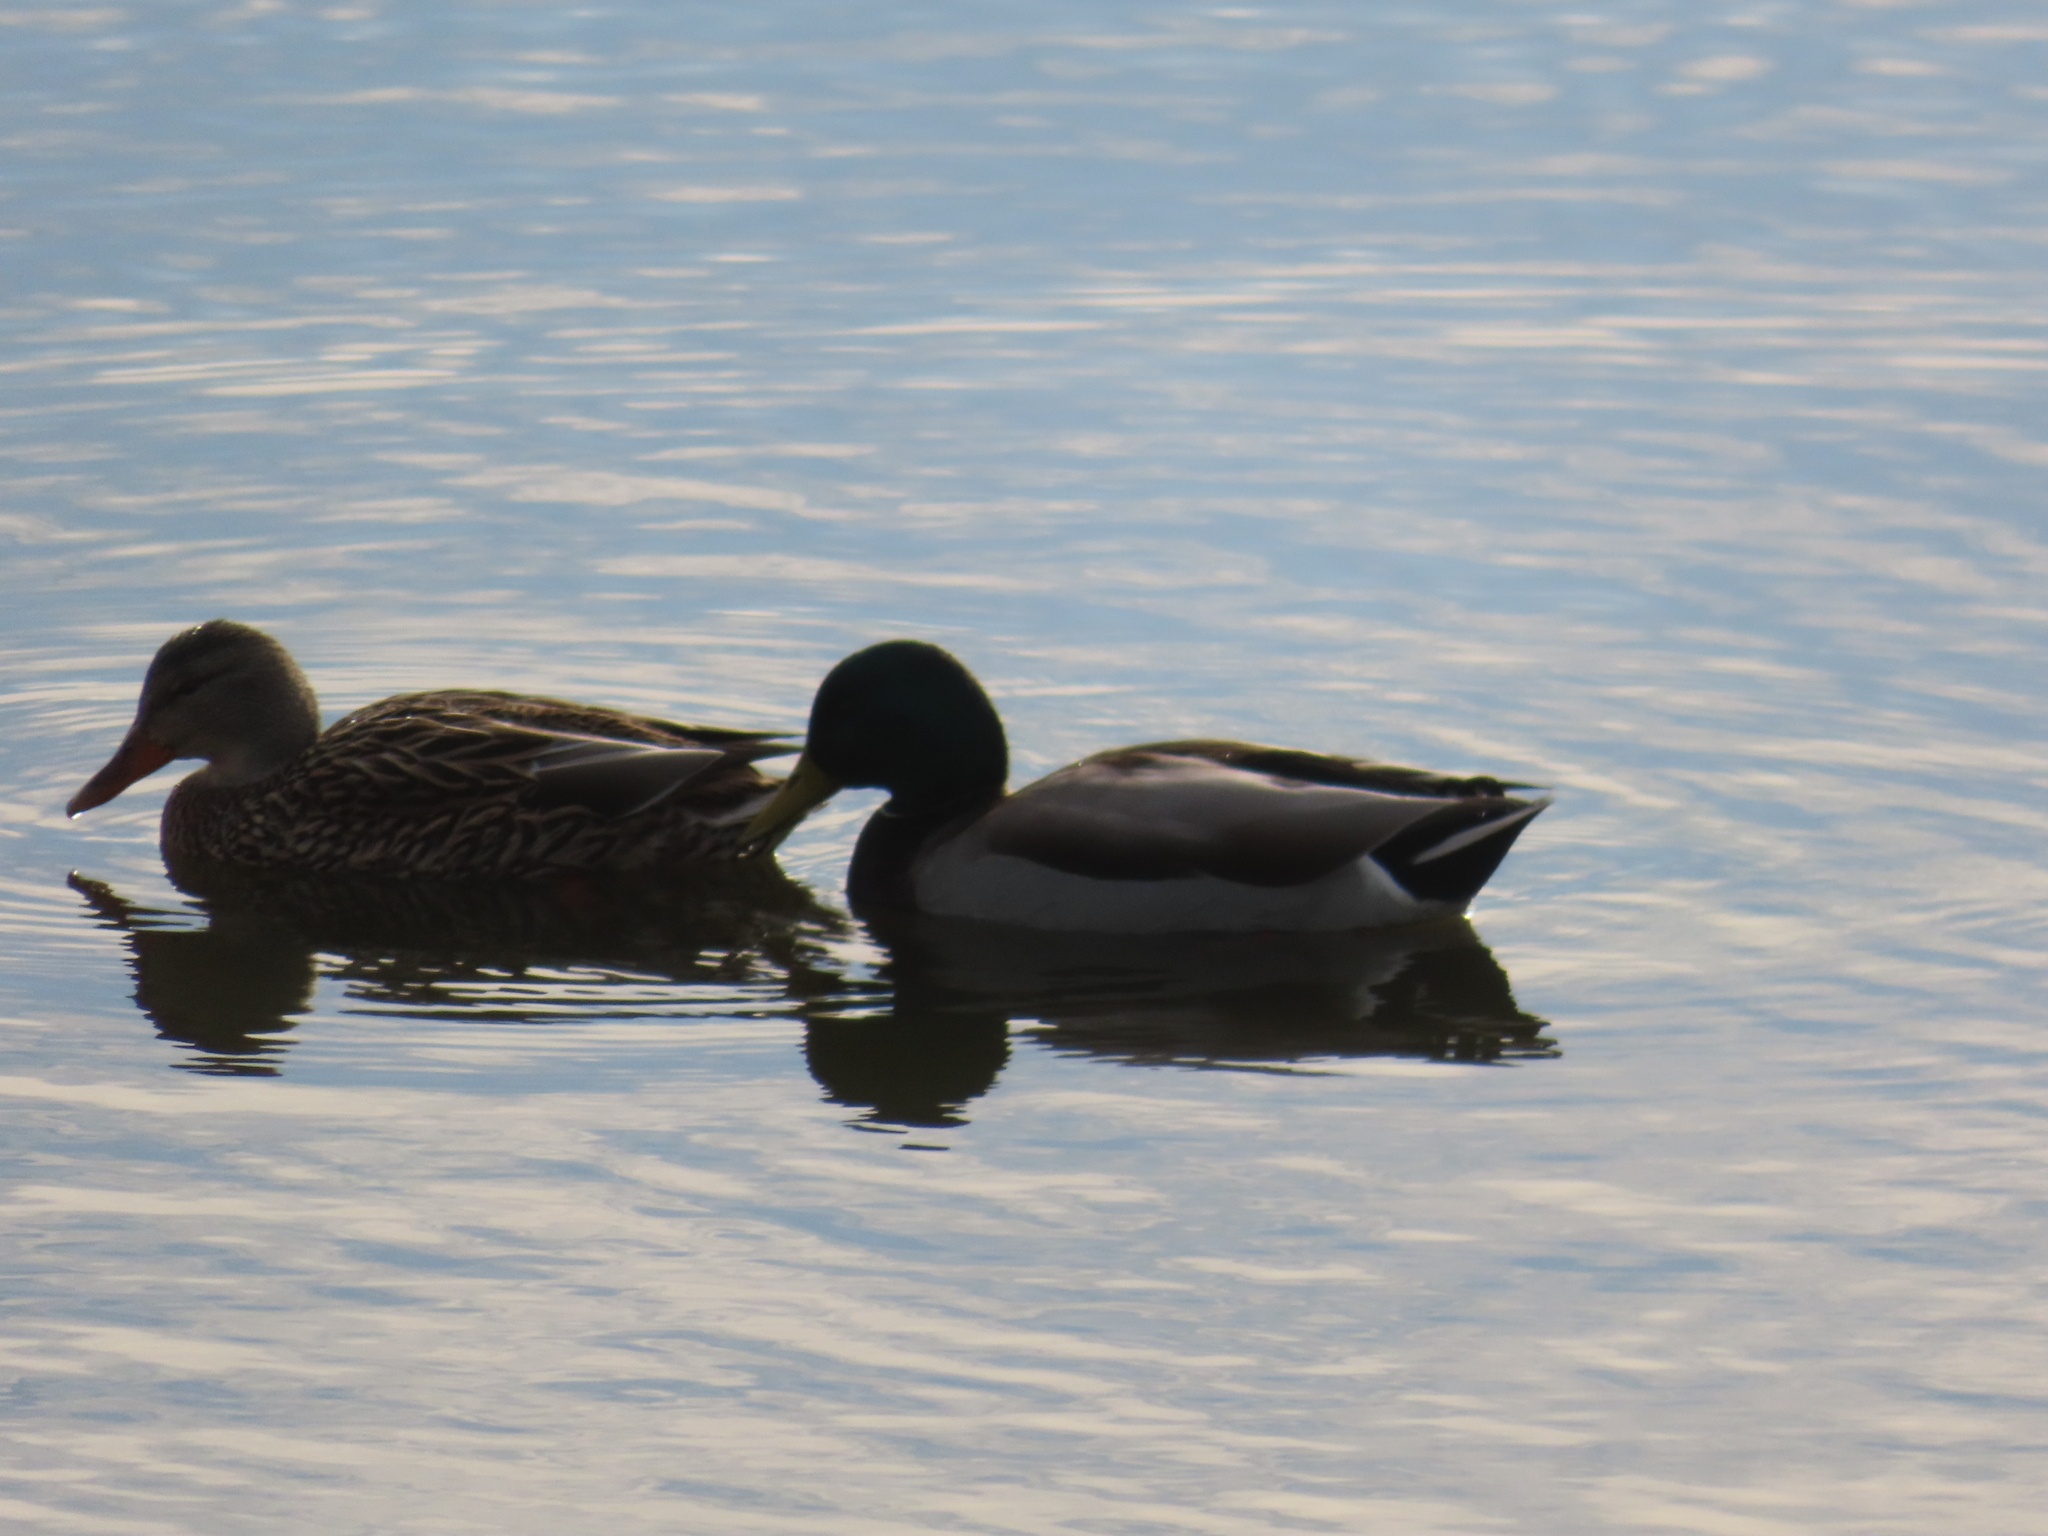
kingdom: Animalia
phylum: Chordata
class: Aves
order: Anseriformes
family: Anatidae
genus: Anas
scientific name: Anas platyrhynchos
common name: Mallard
